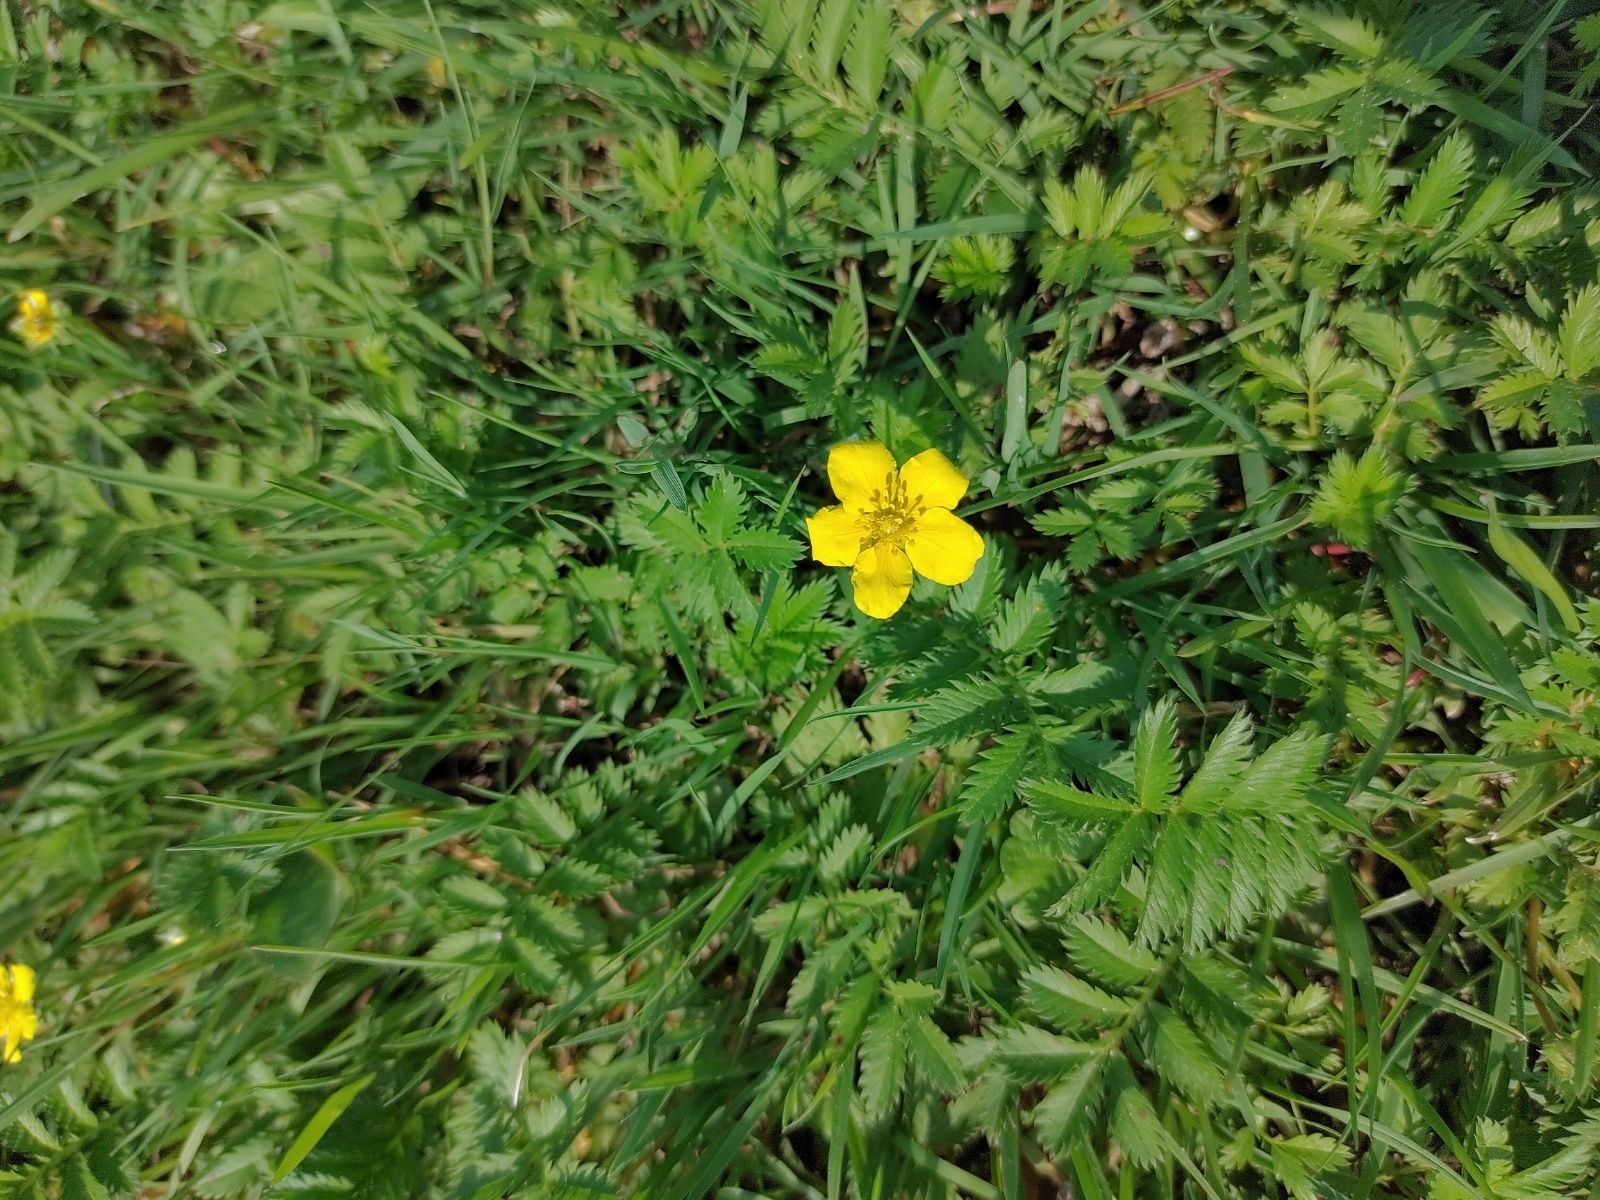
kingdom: Plantae
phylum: Tracheophyta
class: Magnoliopsida
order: Rosales
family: Rosaceae
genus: Argentina
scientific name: Argentina anserina
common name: Common silverweed
